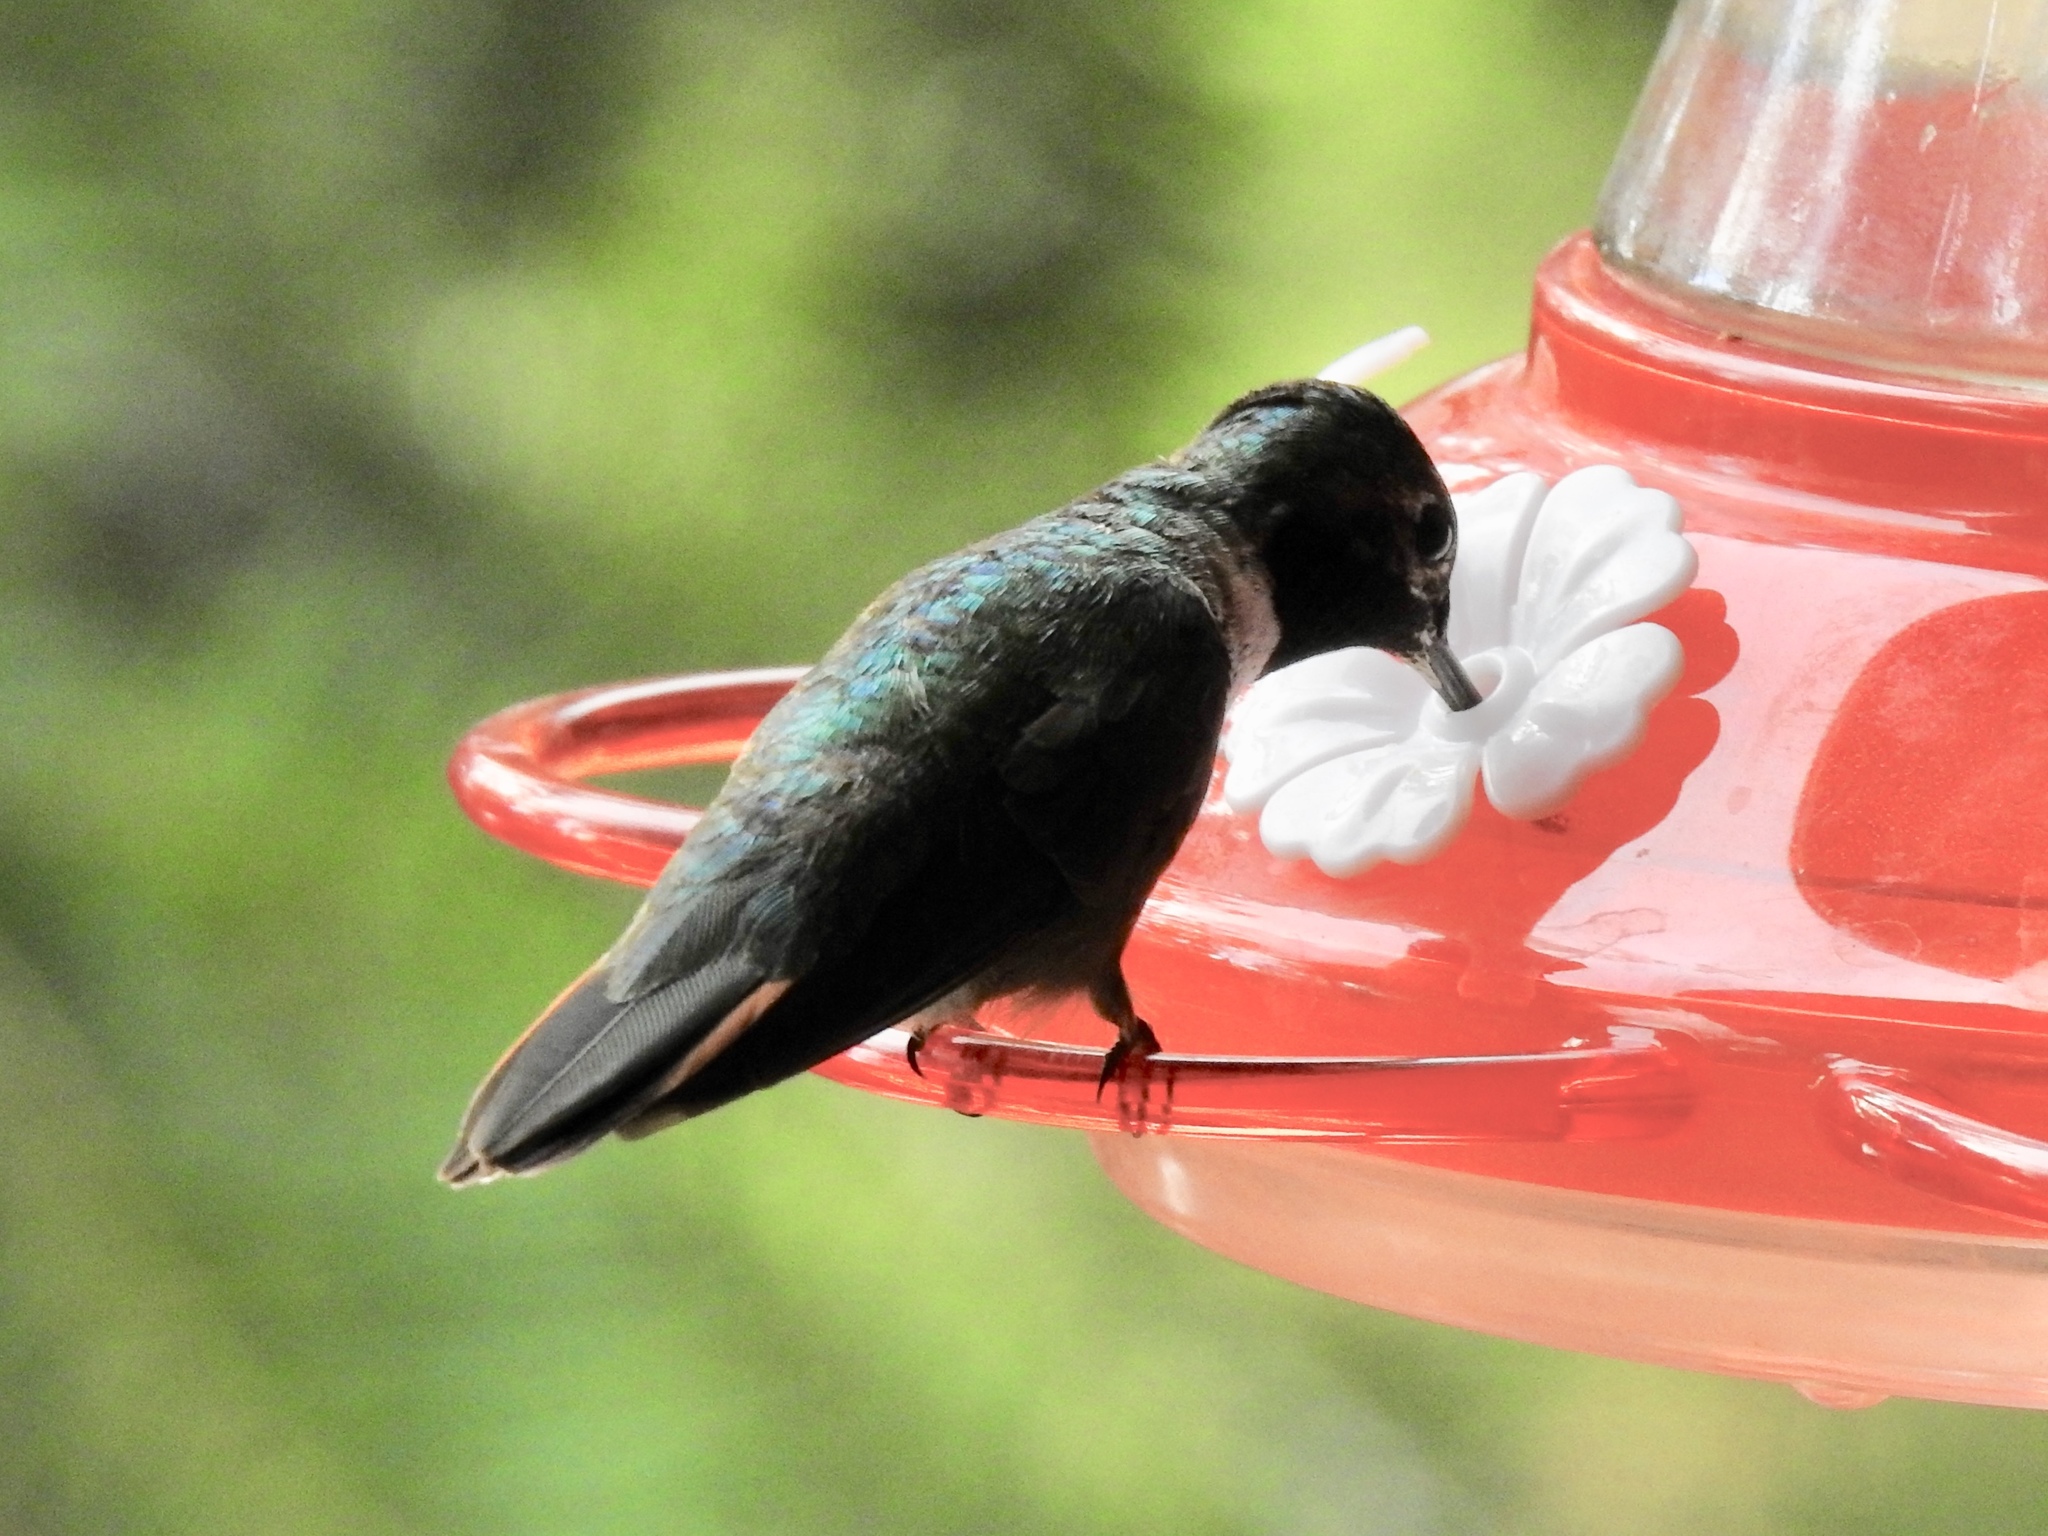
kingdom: Animalia
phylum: Chordata
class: Aves
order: Apodiformes
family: Trochilidae
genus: Selasphorus
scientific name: Selasphorus platycercus
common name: Broad-tailed hummingbird
